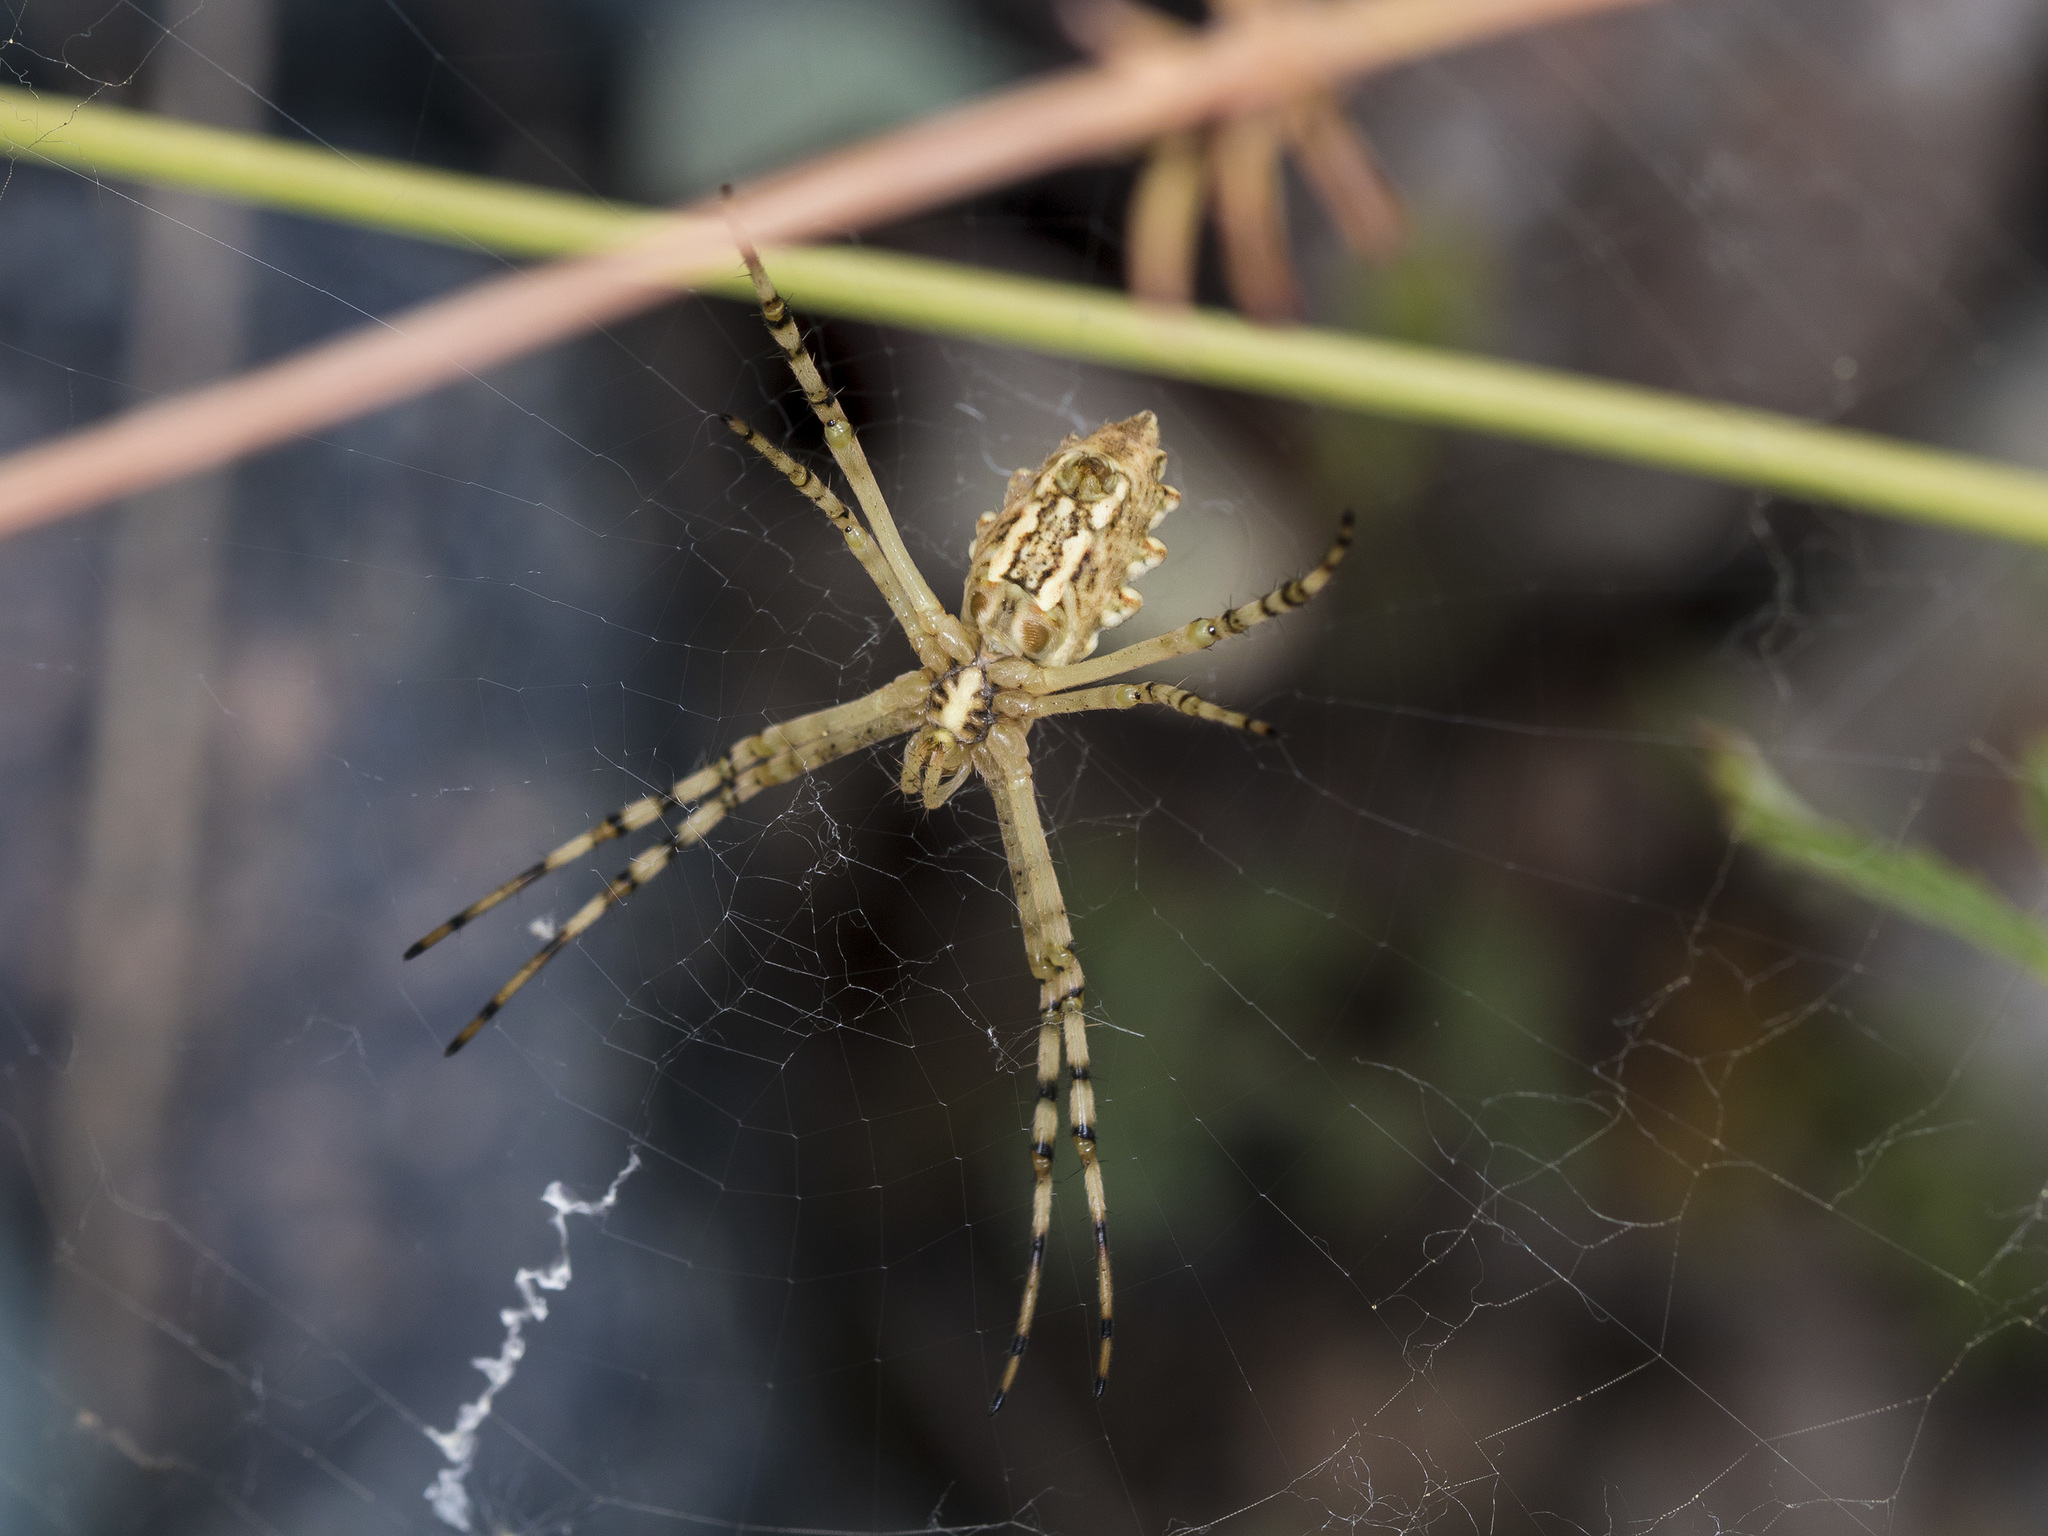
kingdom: Animalia
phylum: Arthropoda
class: Arachnida
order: Araneae
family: Araneidae
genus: Argiope
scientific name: Argiope lobata
